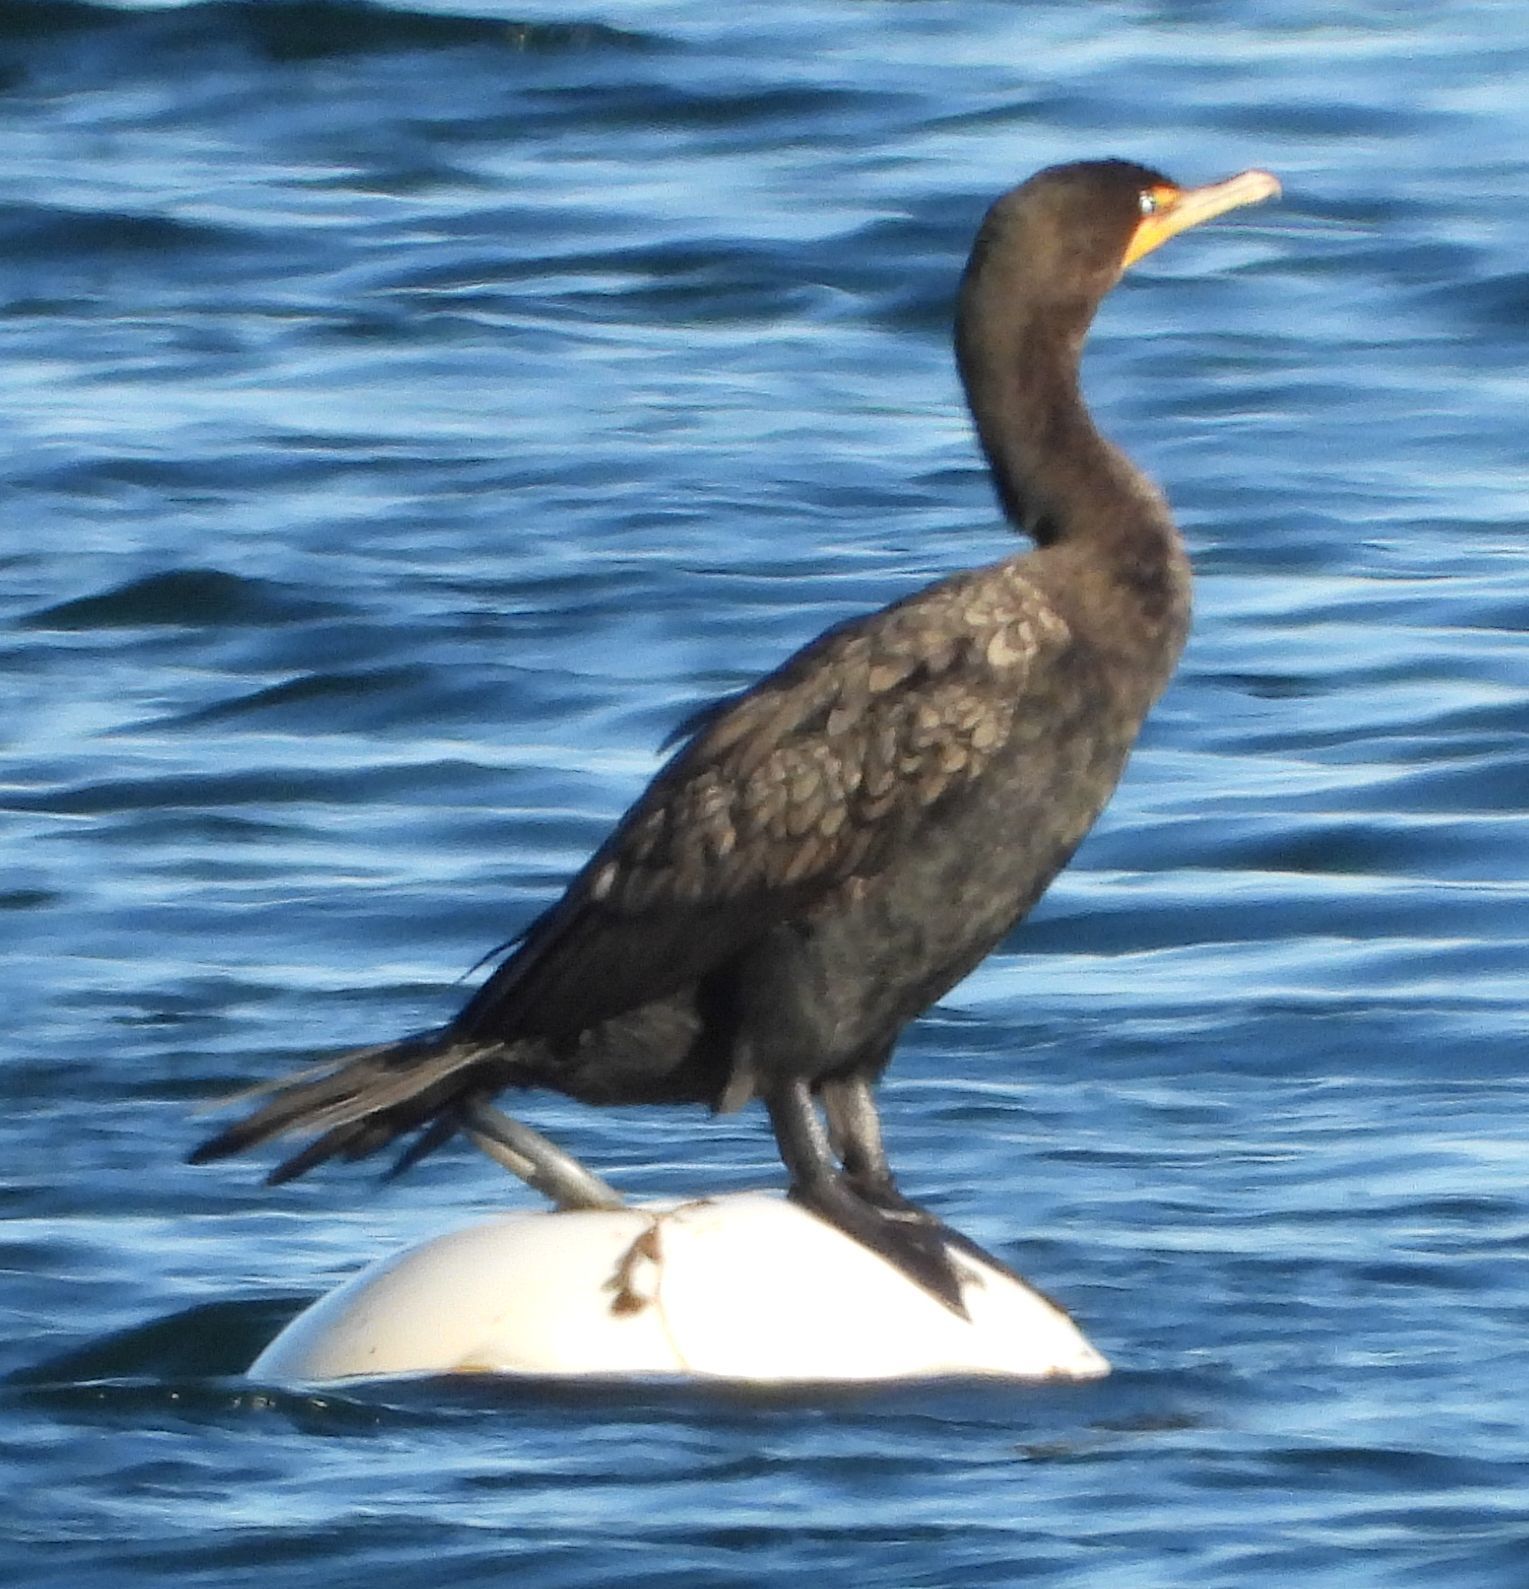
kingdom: Animalia
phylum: Chordata
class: Aves
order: Suliformes
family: Phalacrocoracidae
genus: Phalacrocorax
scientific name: Phalacrocorax auritus
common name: Double-crested cormorant
